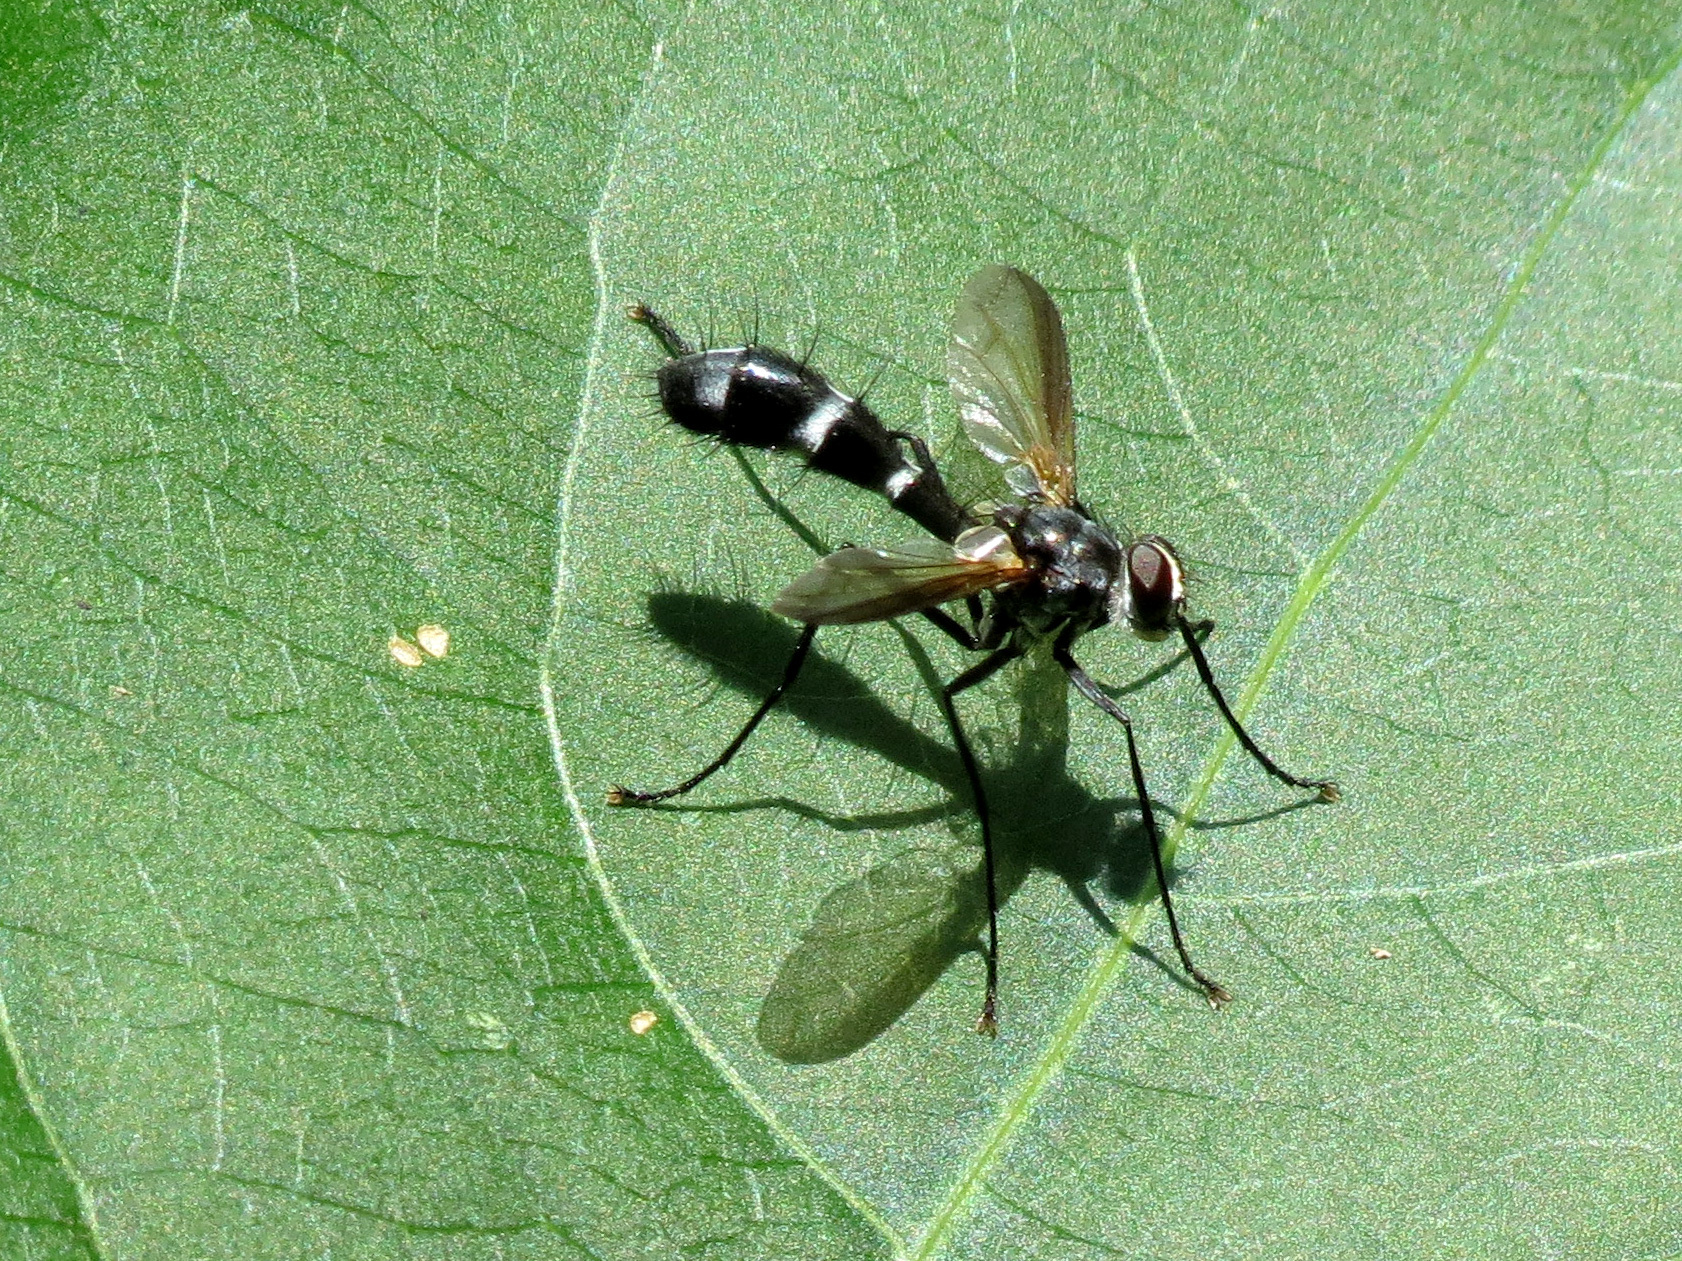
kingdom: Animalia
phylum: Arthropoda
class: Insecta
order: Diptera
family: Tachinidae
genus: Cordyligaster
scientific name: Cordyligaster septentrionalis
